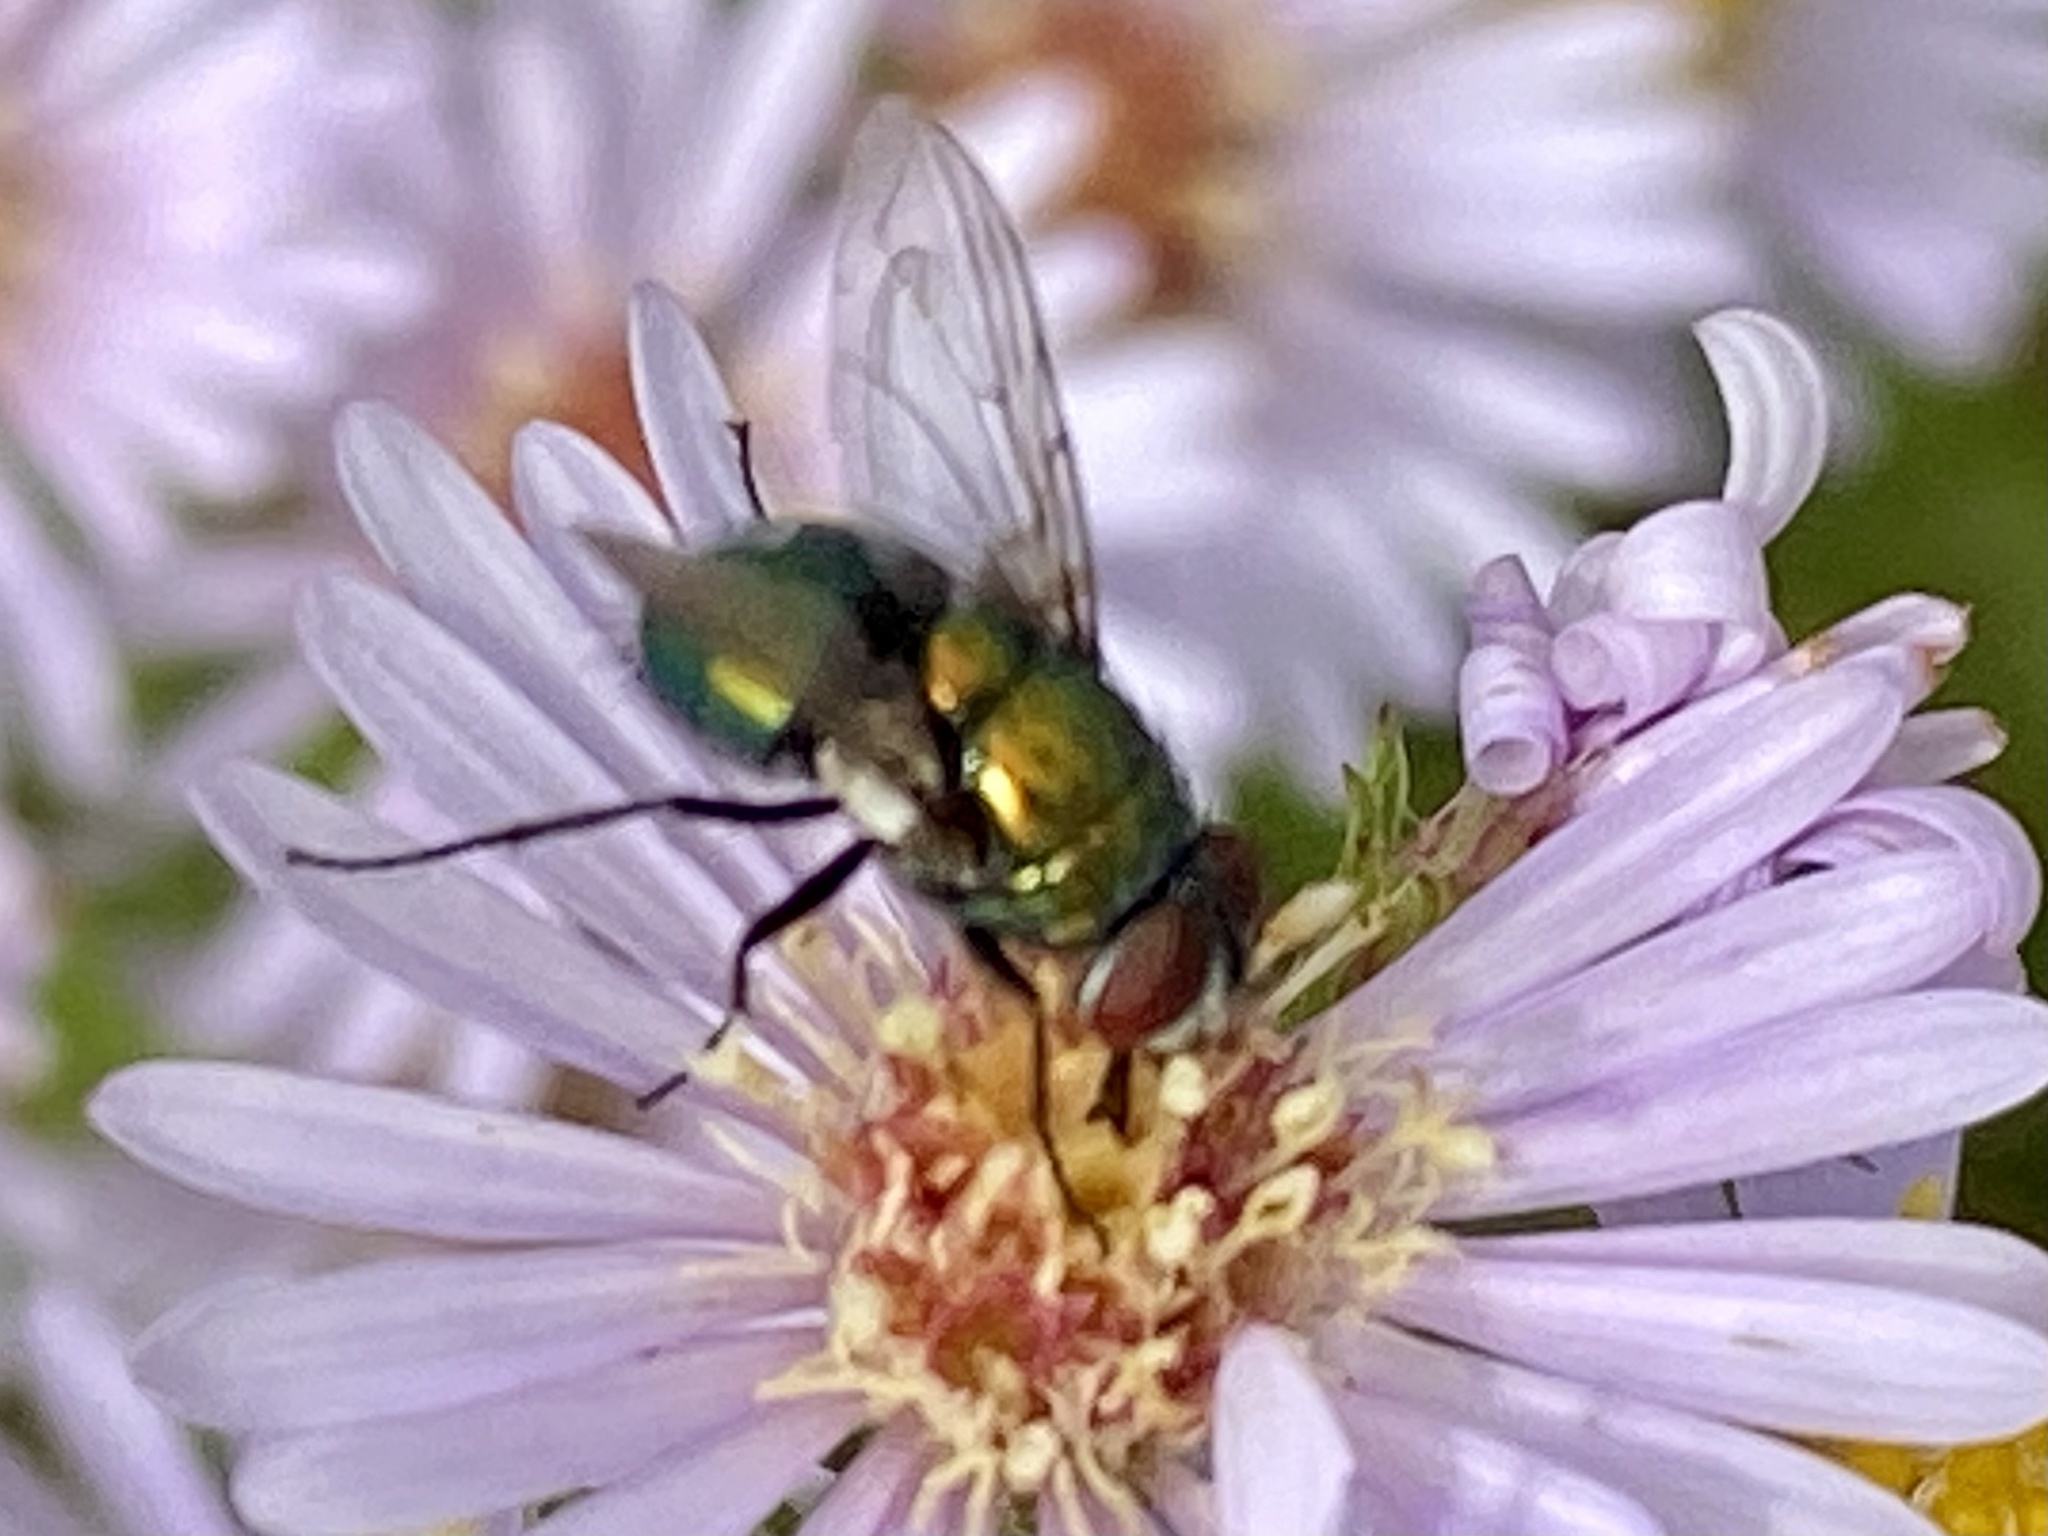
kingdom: Animalia
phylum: Arthropoda
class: Insecta
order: Diptera
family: Calliphoridae
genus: Lucilia
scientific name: Lucilia caeruleiviridis
